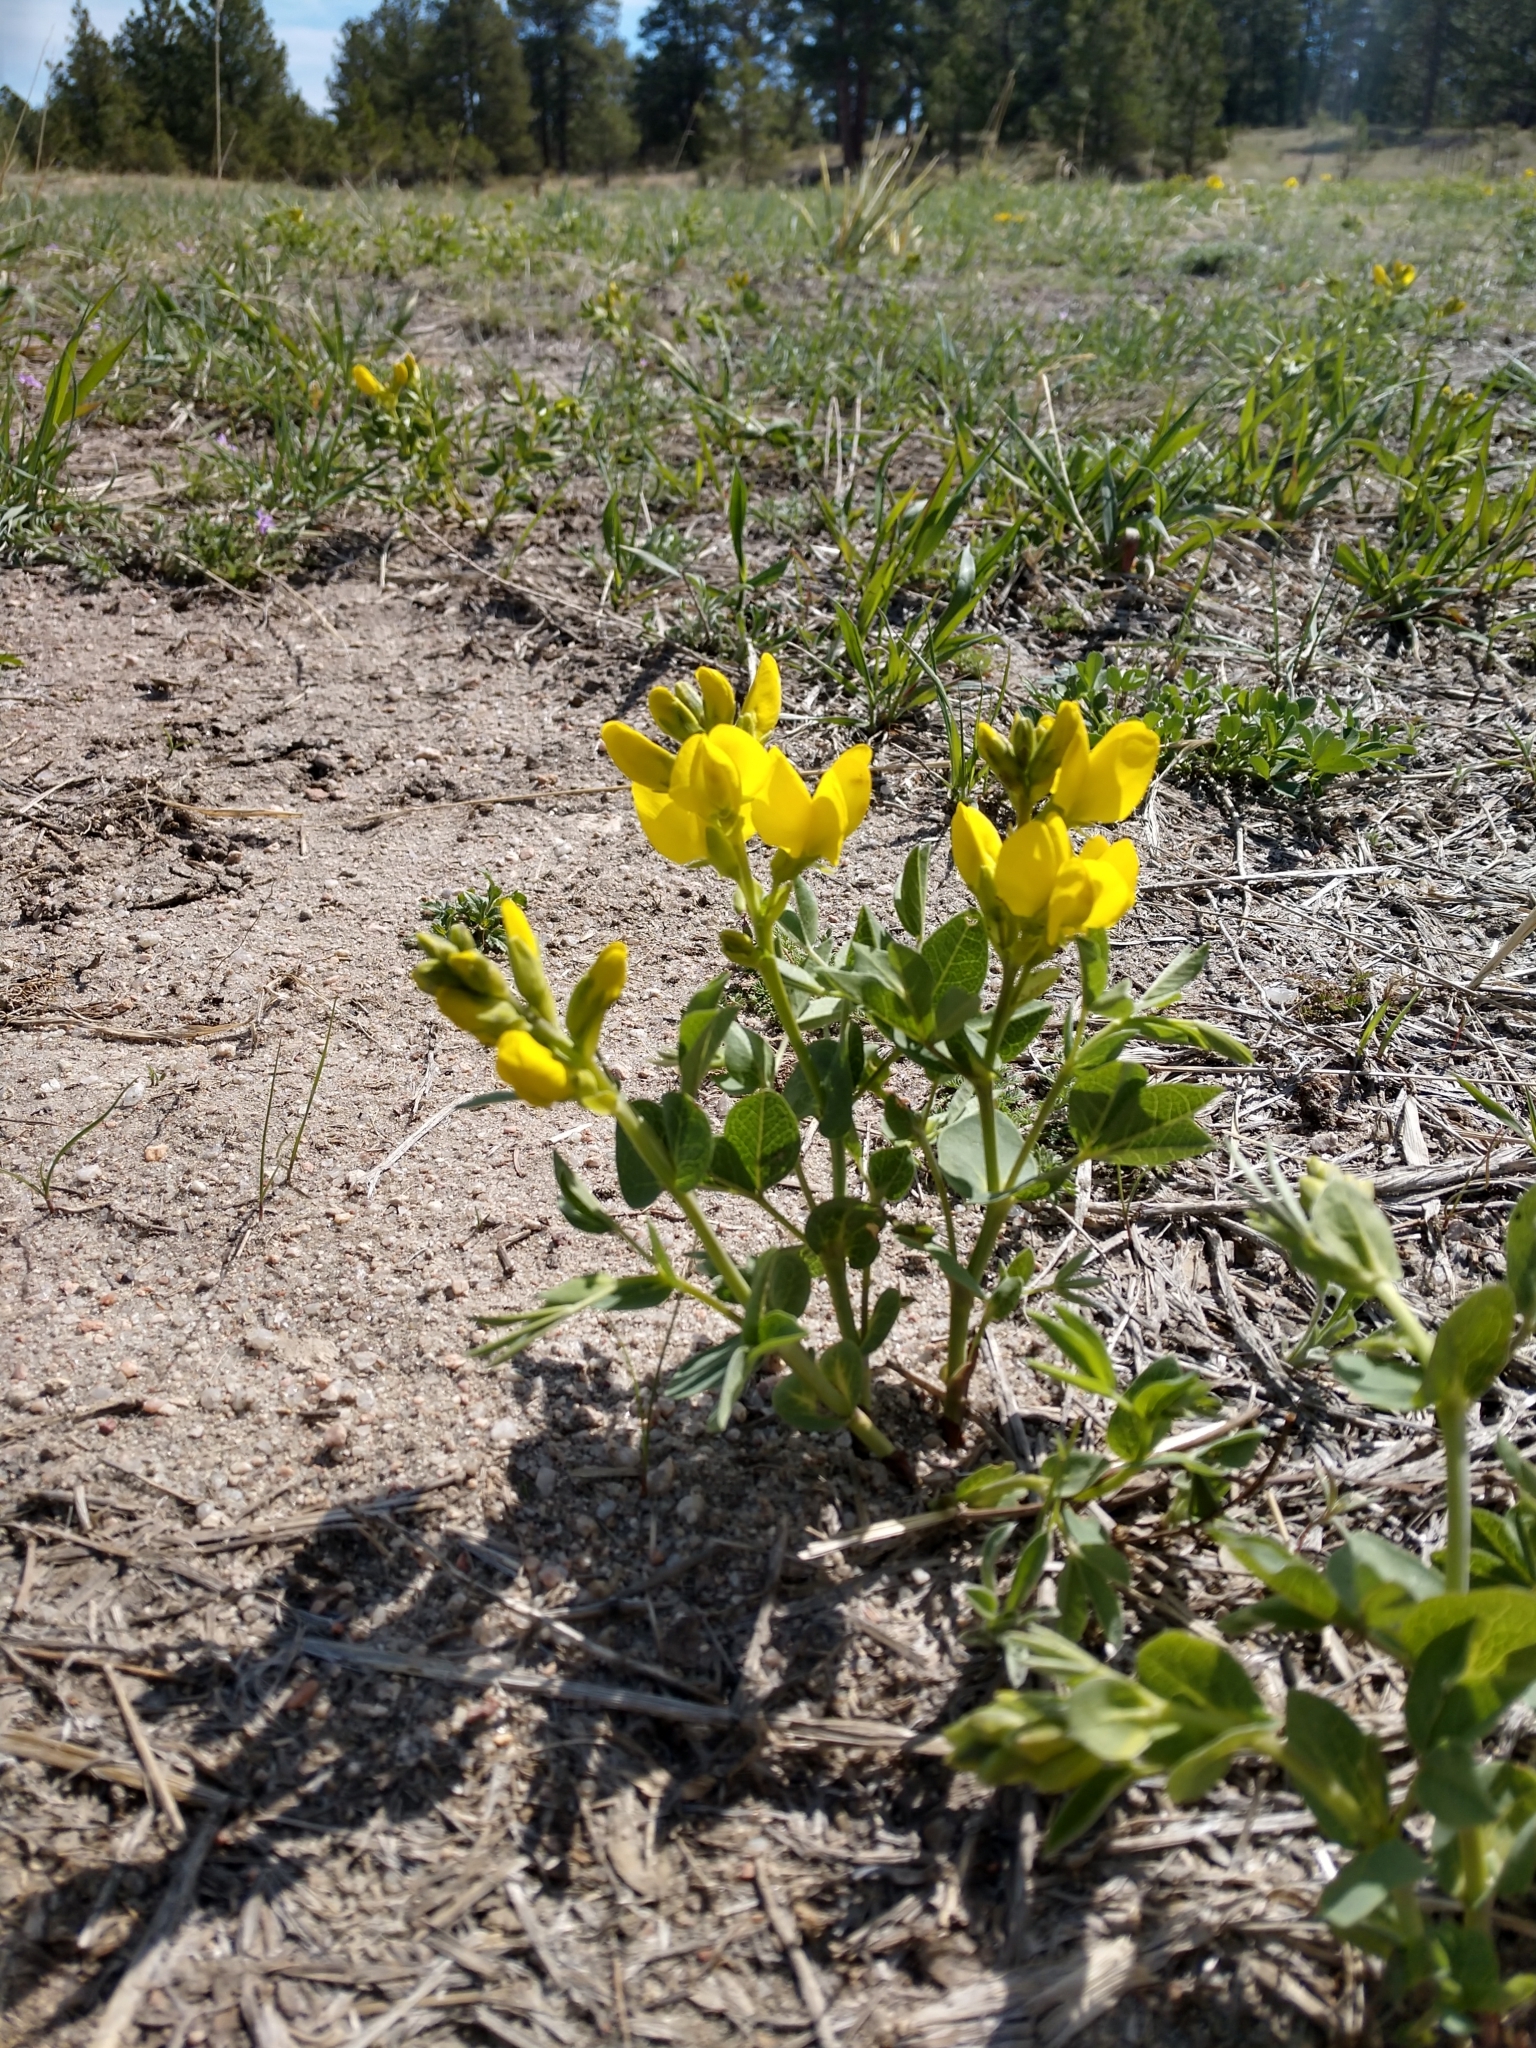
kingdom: Plantae
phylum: Tracheophyta
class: Magnoliopsida
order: Fabales
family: Fabaceae
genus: Thermopsis
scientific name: Thermopsis rhombifolia
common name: Circle-pod-pea
